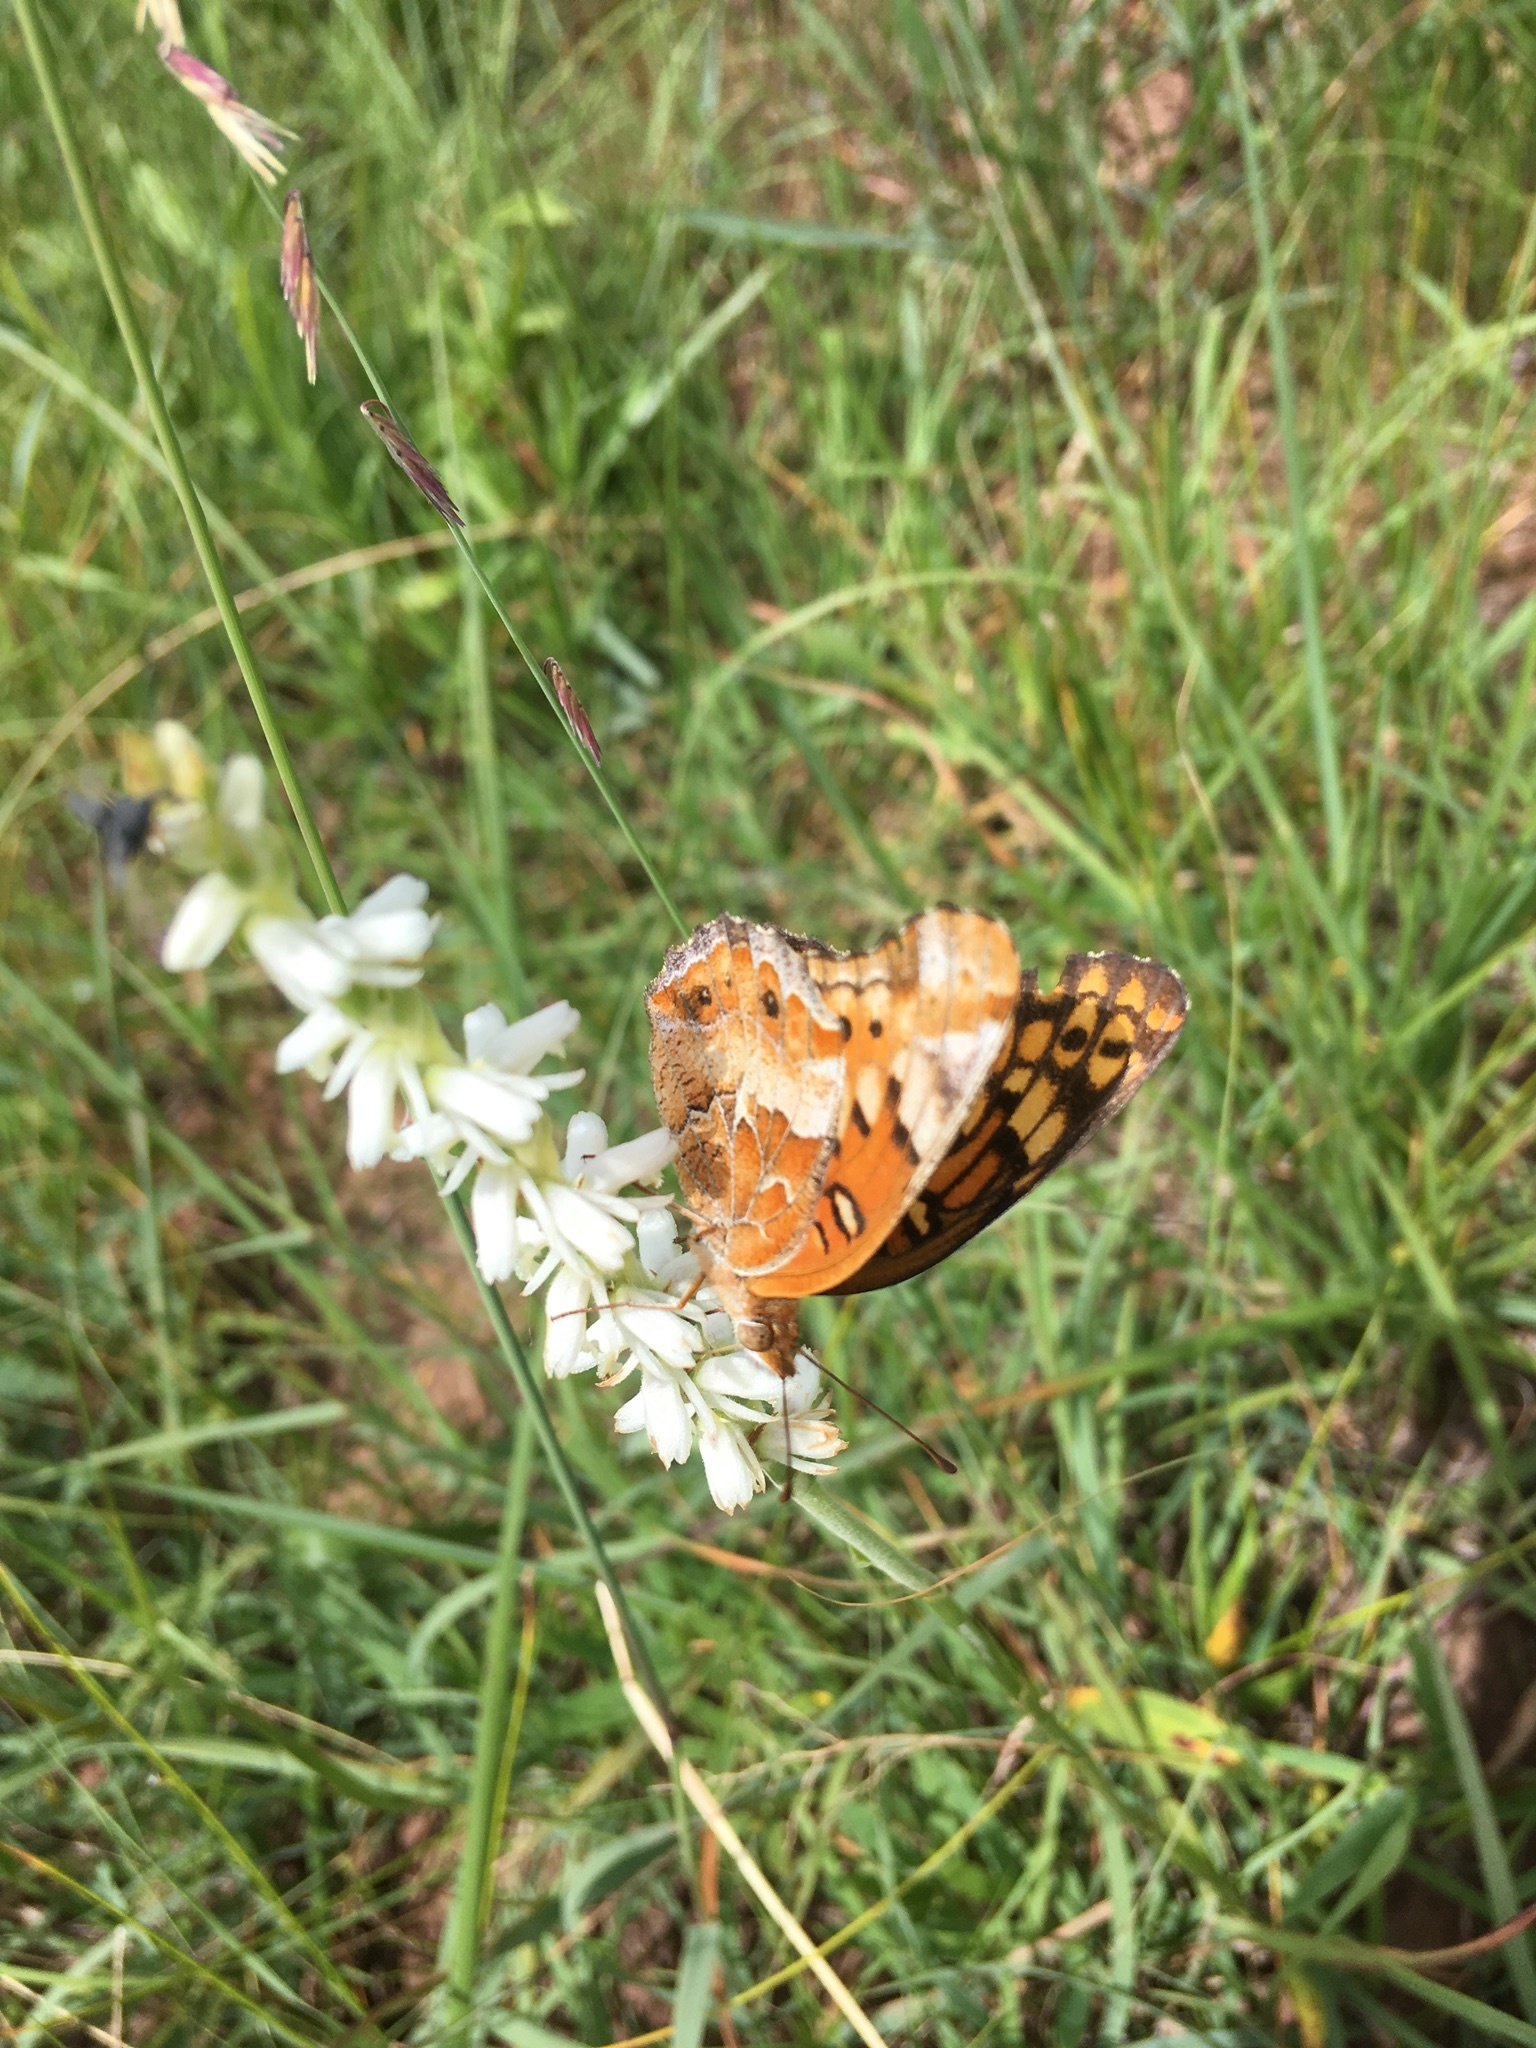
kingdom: Animalia
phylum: Arthropoda
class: Insecta
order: Lepidoptera
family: Nymphalidae
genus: Euptoieta
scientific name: Euptoieta claudia
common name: Variegated fritillary
